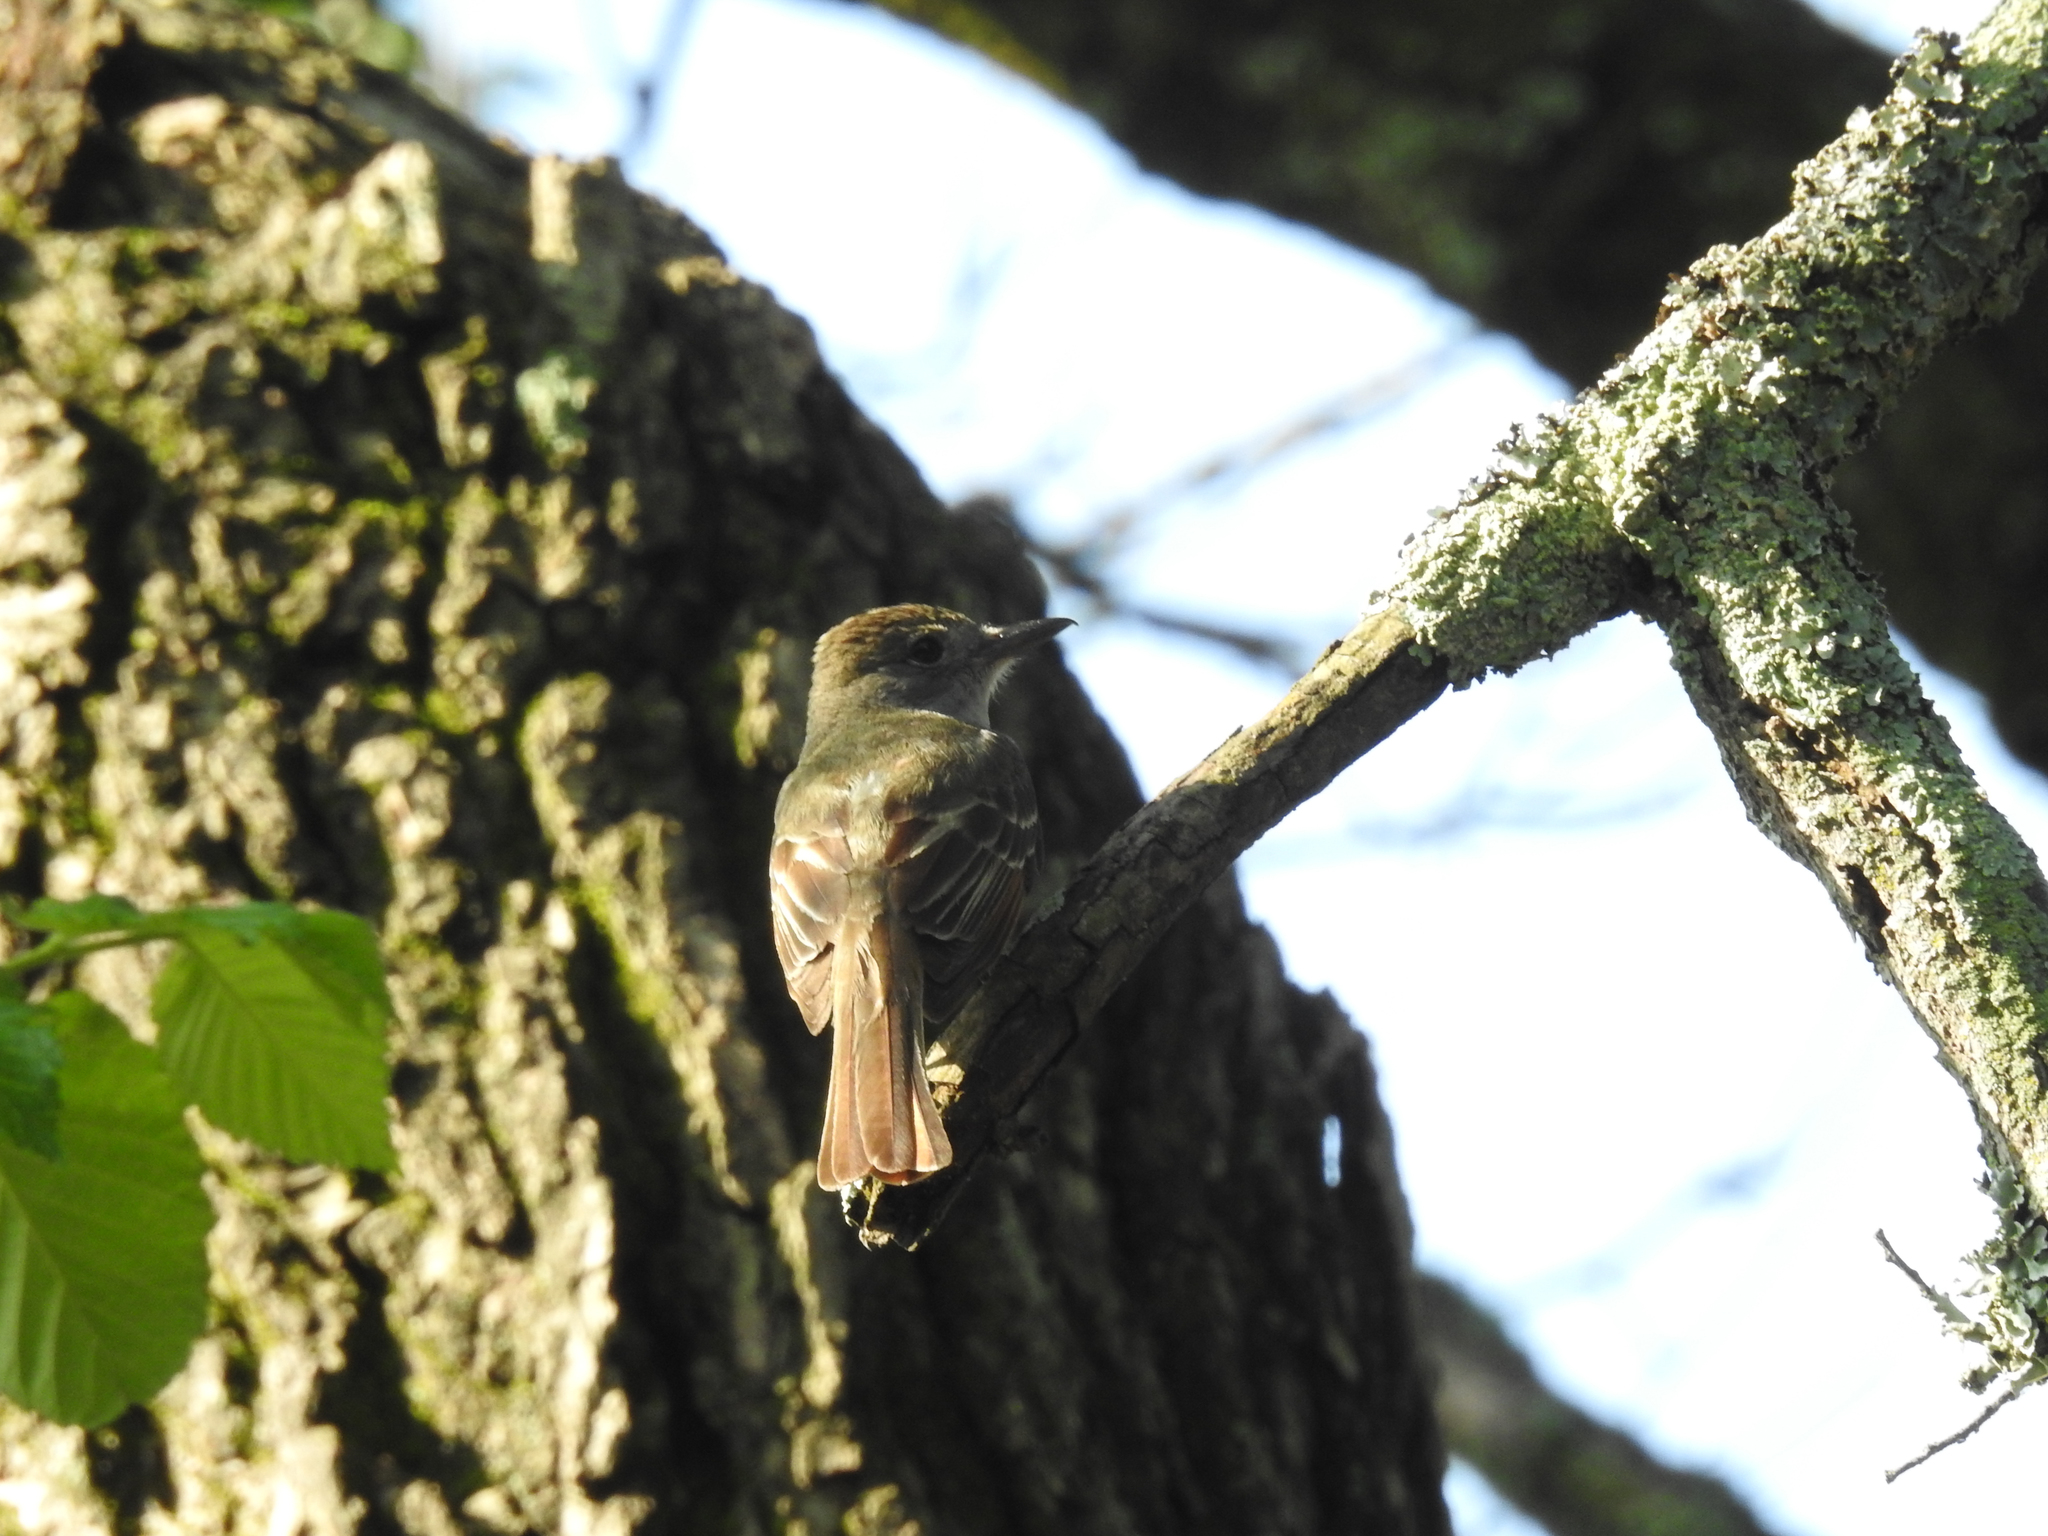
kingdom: Animalia
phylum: Chordata
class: Aves
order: Passeriformes
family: Tyrannidae
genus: Myiarchus
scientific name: Myiarchus crinitus
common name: Great crested flycatcher
